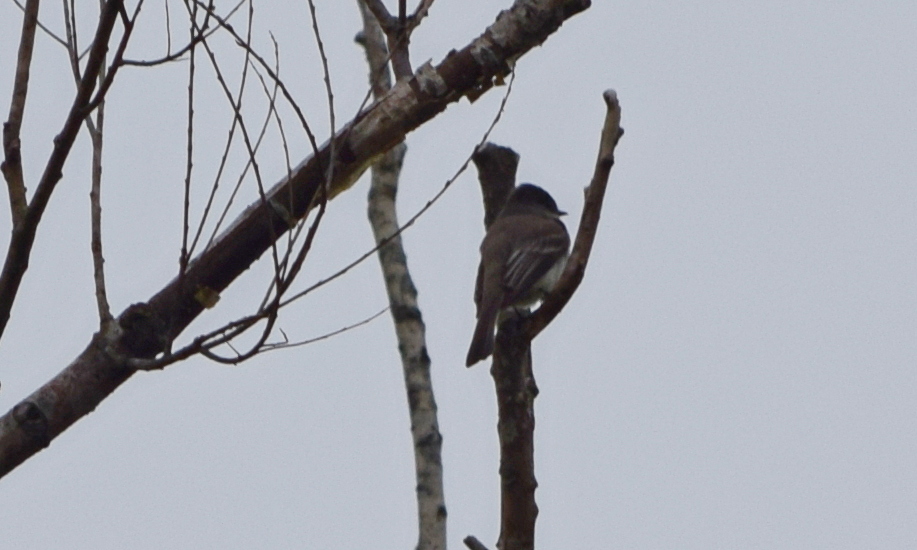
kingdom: Animalia
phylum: Chordata
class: Aves
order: Passeriformes
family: Tyrannidae
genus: Sayornis
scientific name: Sayornis phoebe
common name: Eastern phoebe
